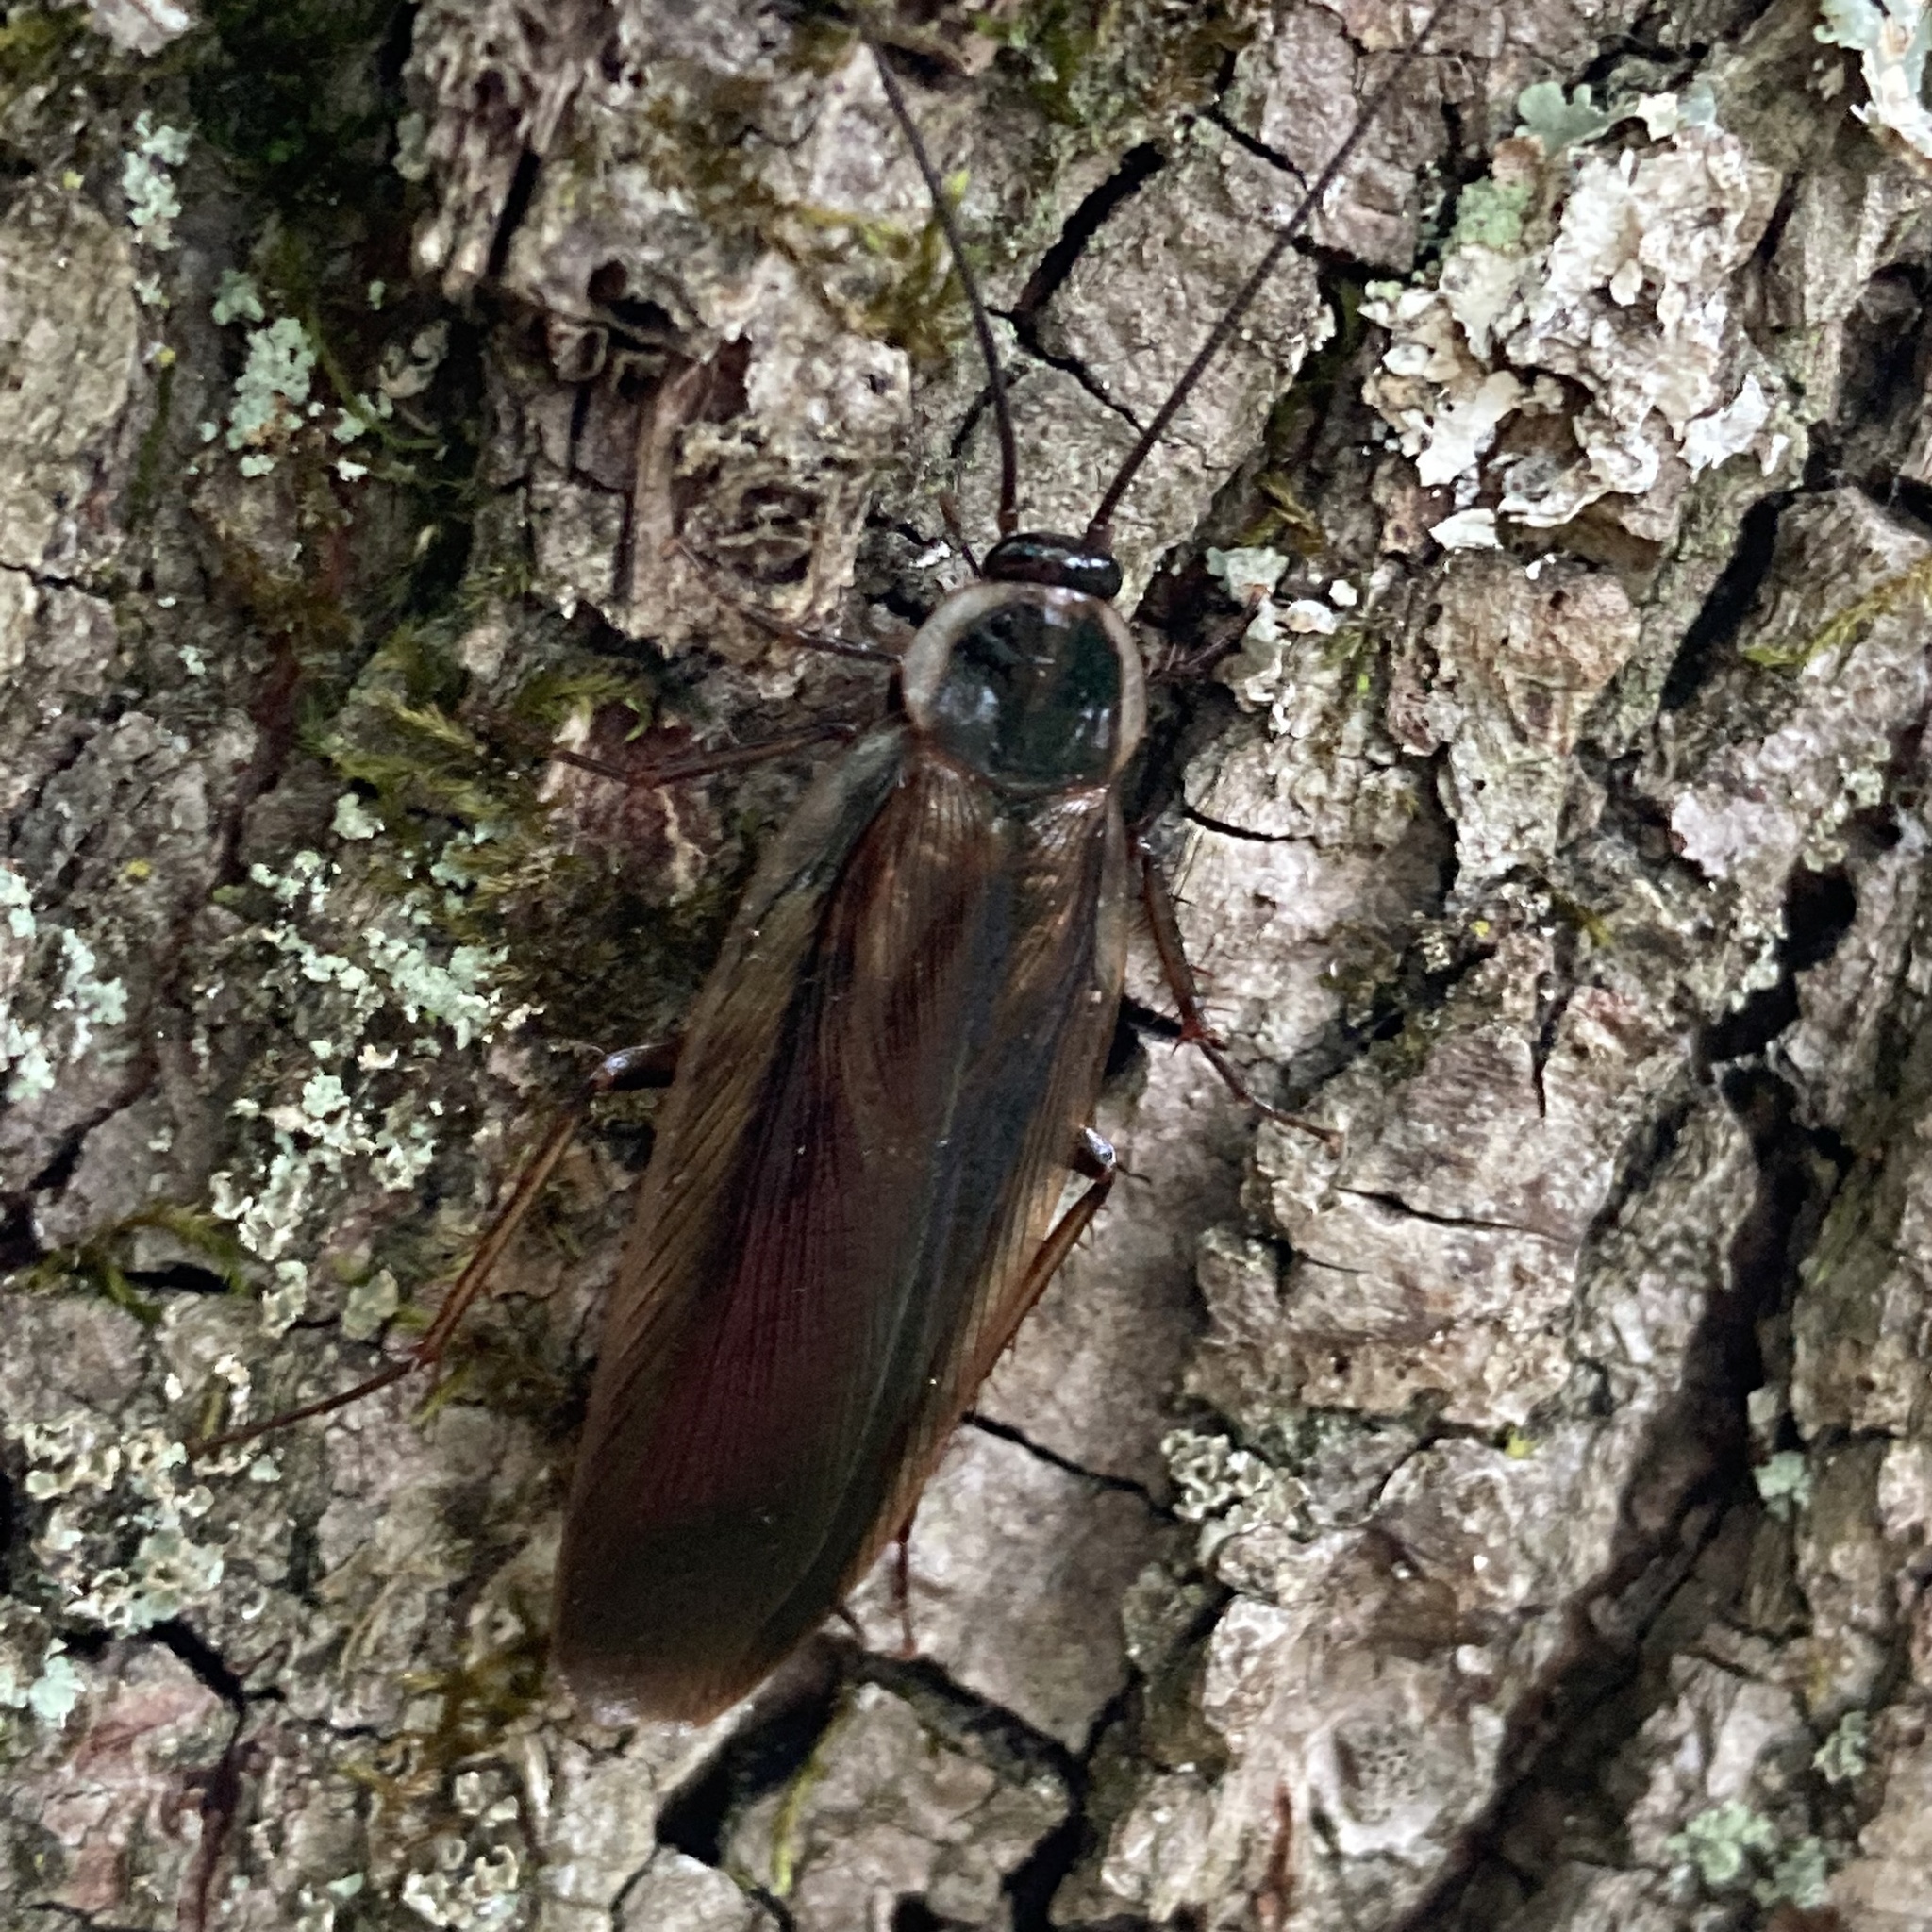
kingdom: Animalia
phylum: Arthropoda
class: Insecta
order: Blattodea
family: Ectobiidae
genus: Parcoblatta
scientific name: Parcoblatta pennsylvanica
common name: Pennsylvanian wood cockroach
